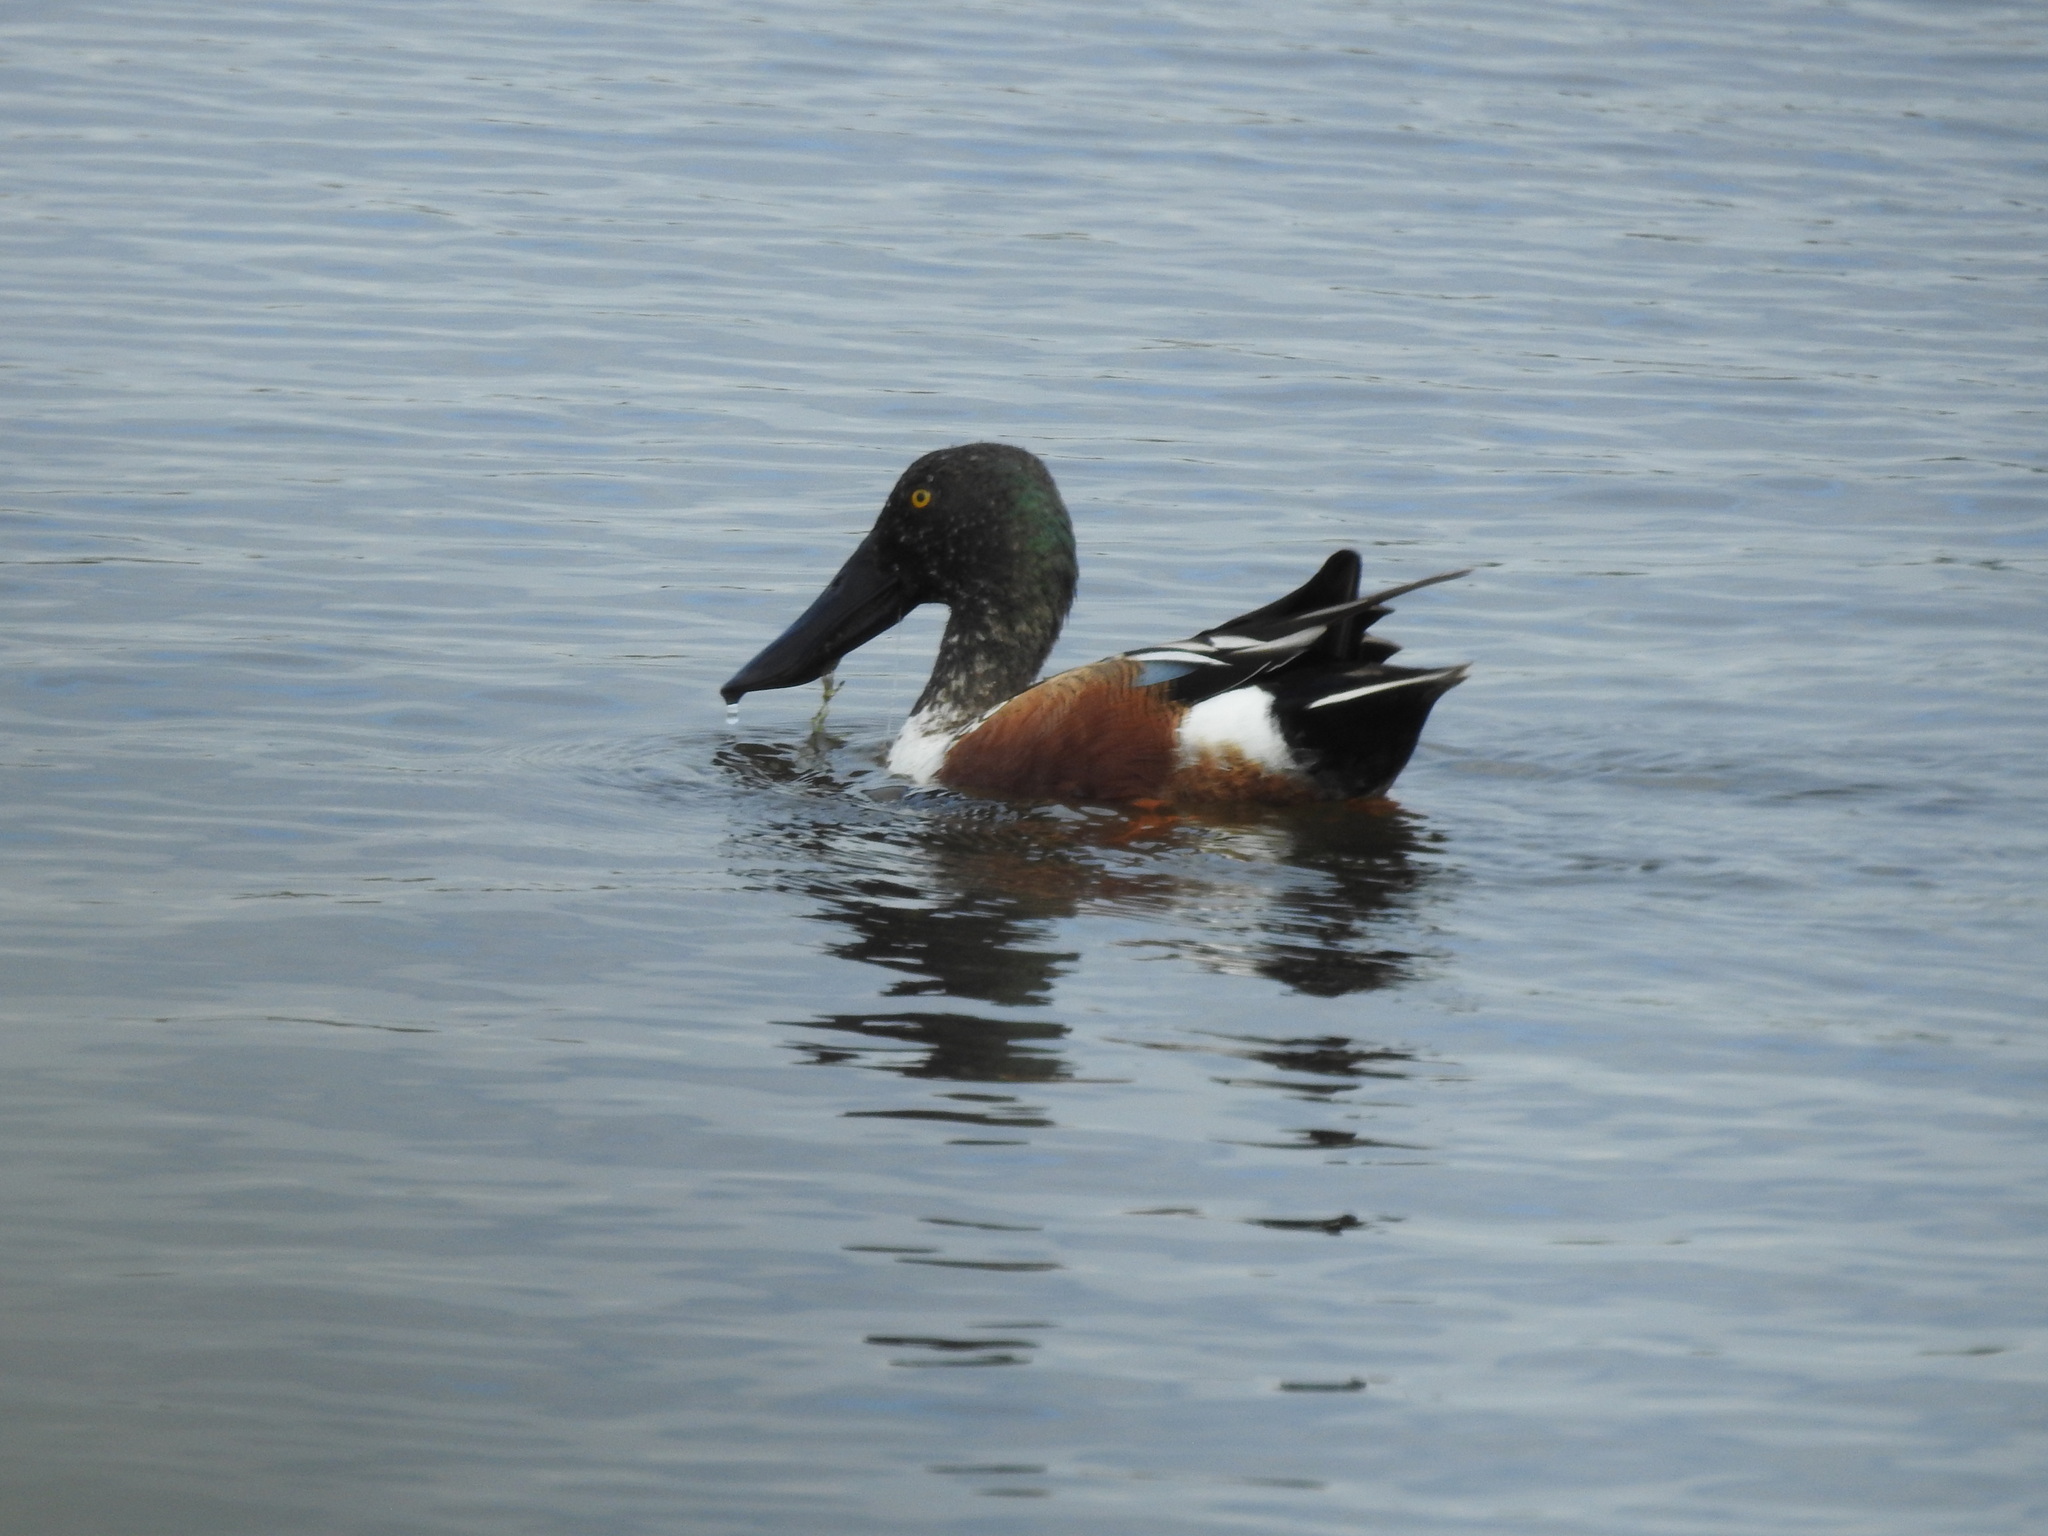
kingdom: Animalia
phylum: Chordata
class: Aves
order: Anseriformes
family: Anatidae
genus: Spatula
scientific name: Spatula clypeata
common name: Northern shoveler
